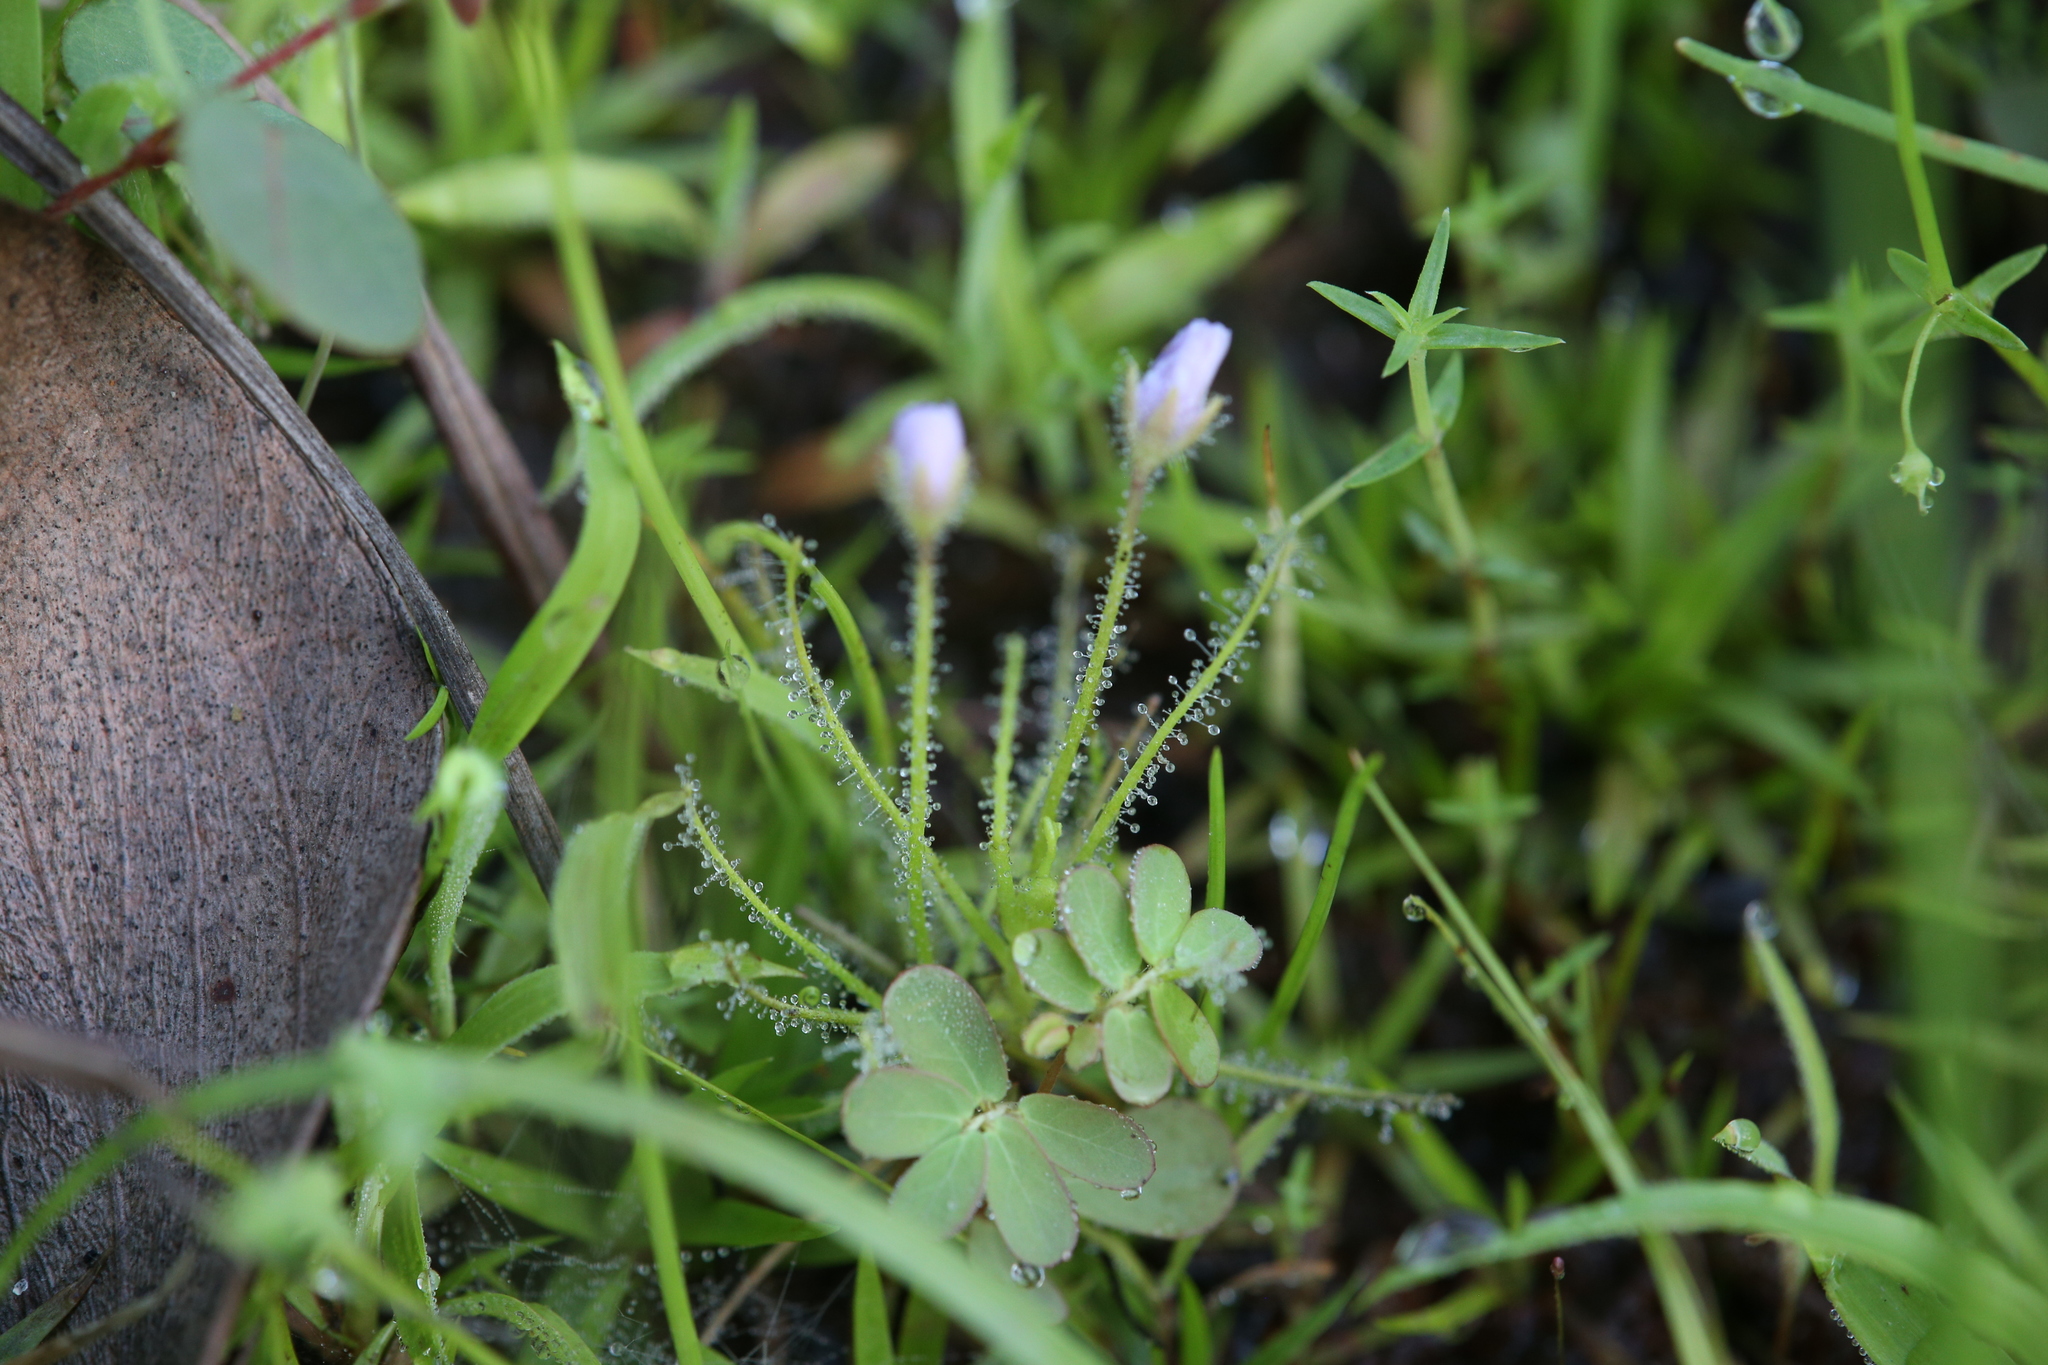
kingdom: Plantae
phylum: Tracheophyta
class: Magnoliopsida
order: Lamiales
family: Byblidaceae
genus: Byblis
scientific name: Byblis liniflora
